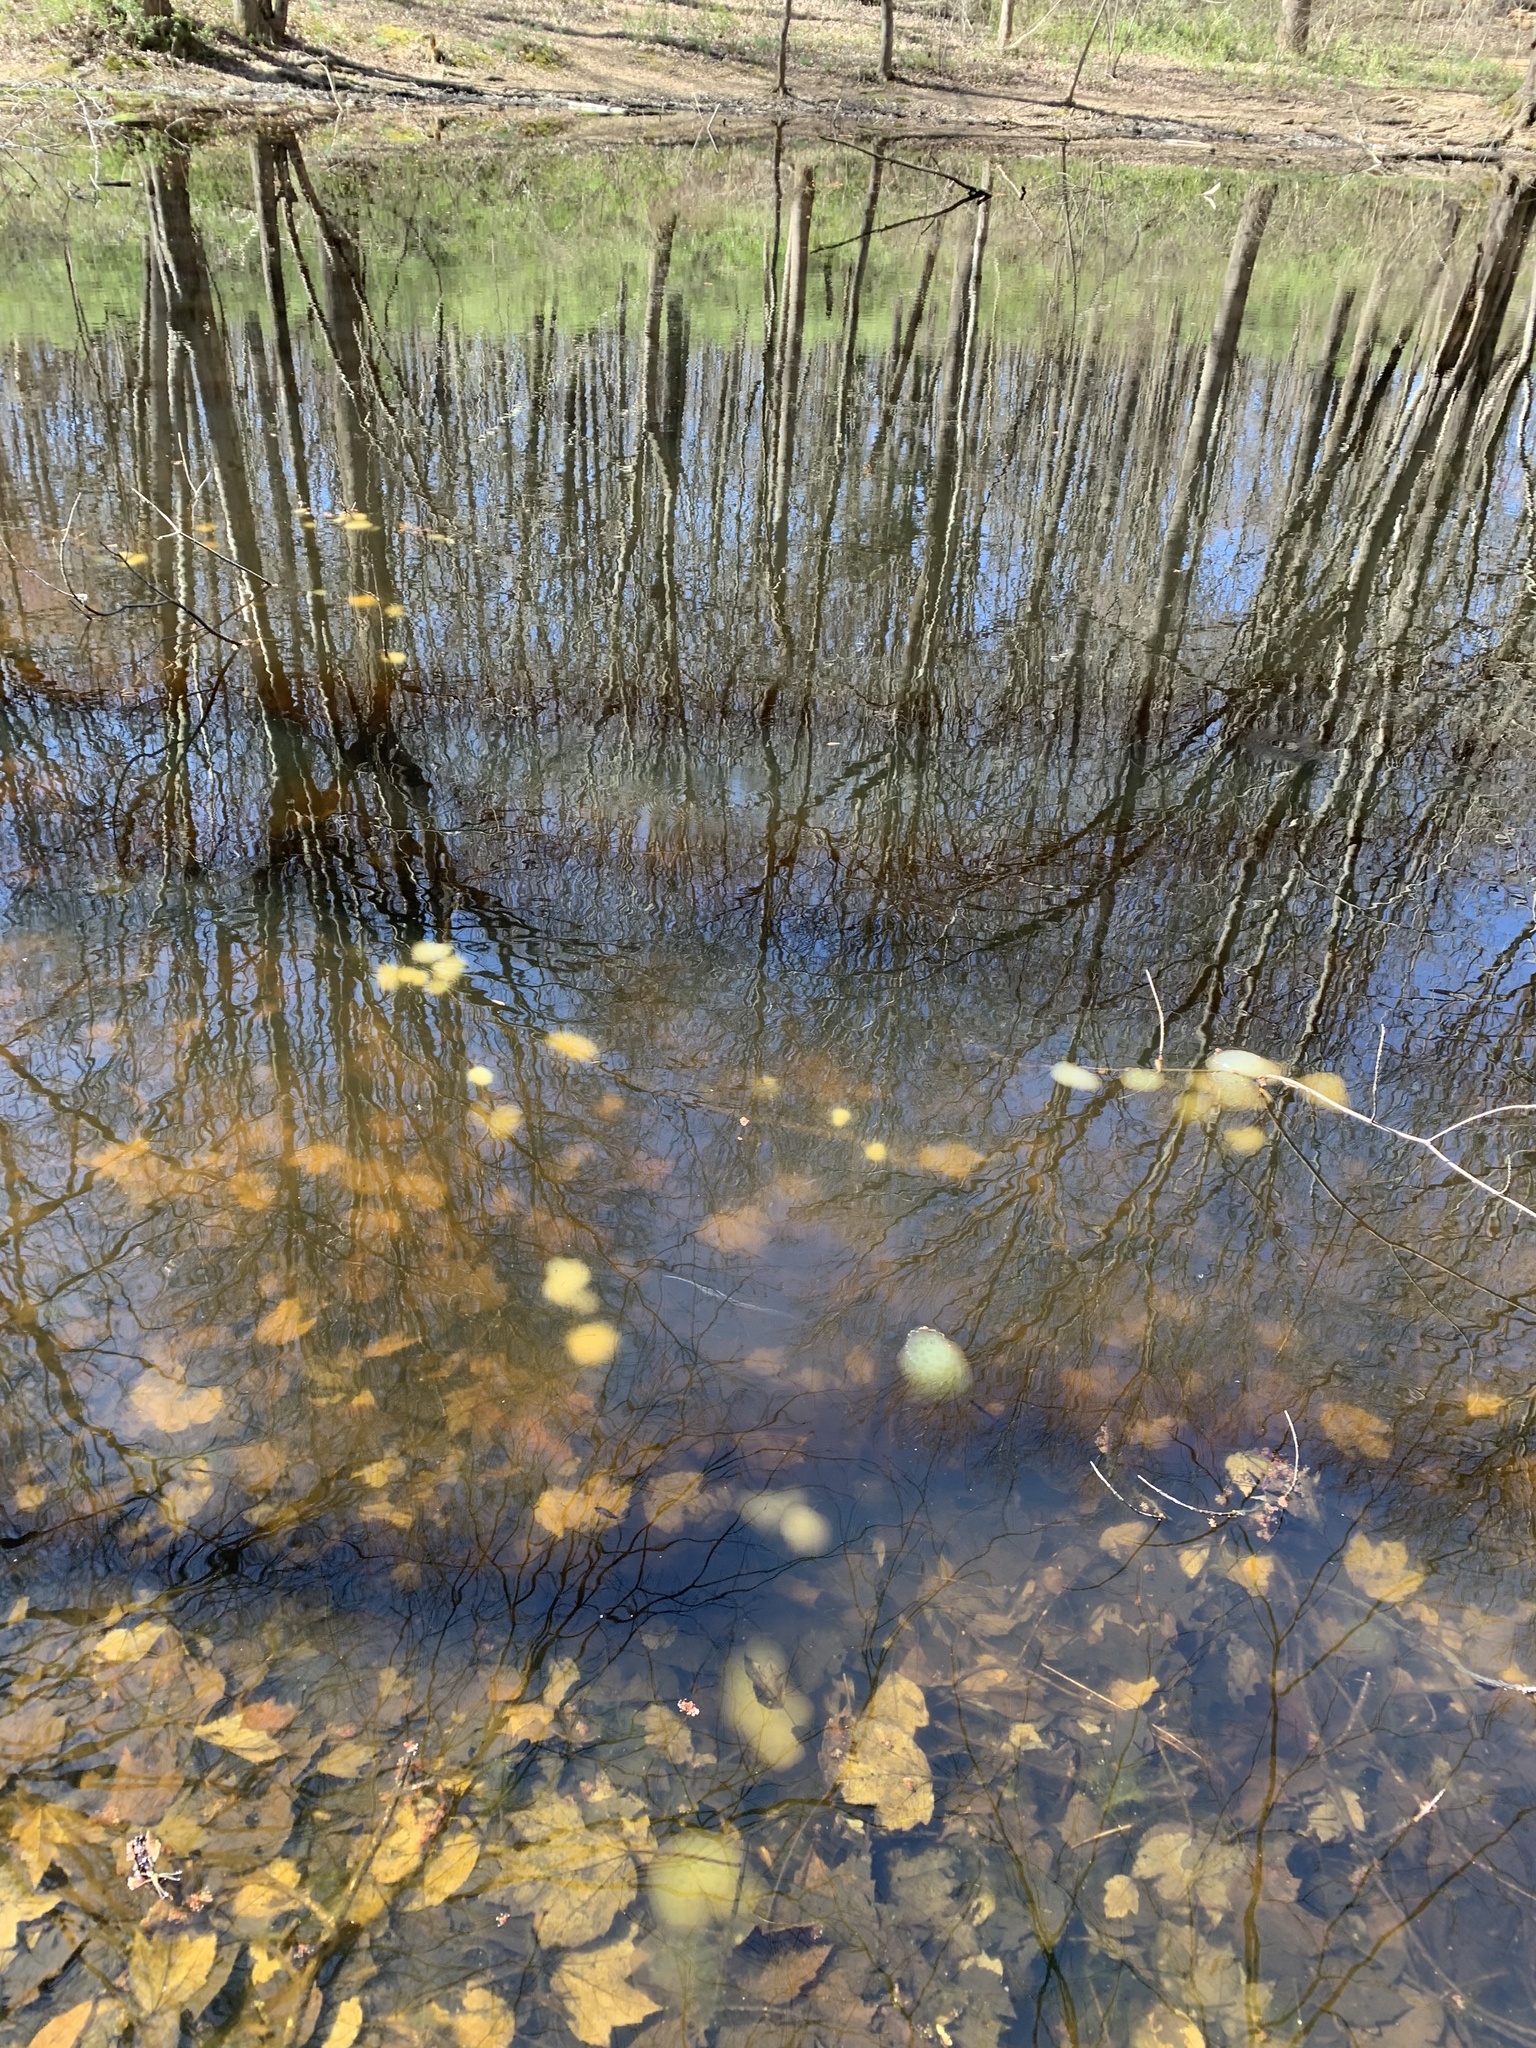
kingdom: Animalia
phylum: Chordata
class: Amphibia
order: Caudata
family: Ambystomatidae
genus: Ambystoma
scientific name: Ambystoma maculatum
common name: Spotted salamander
